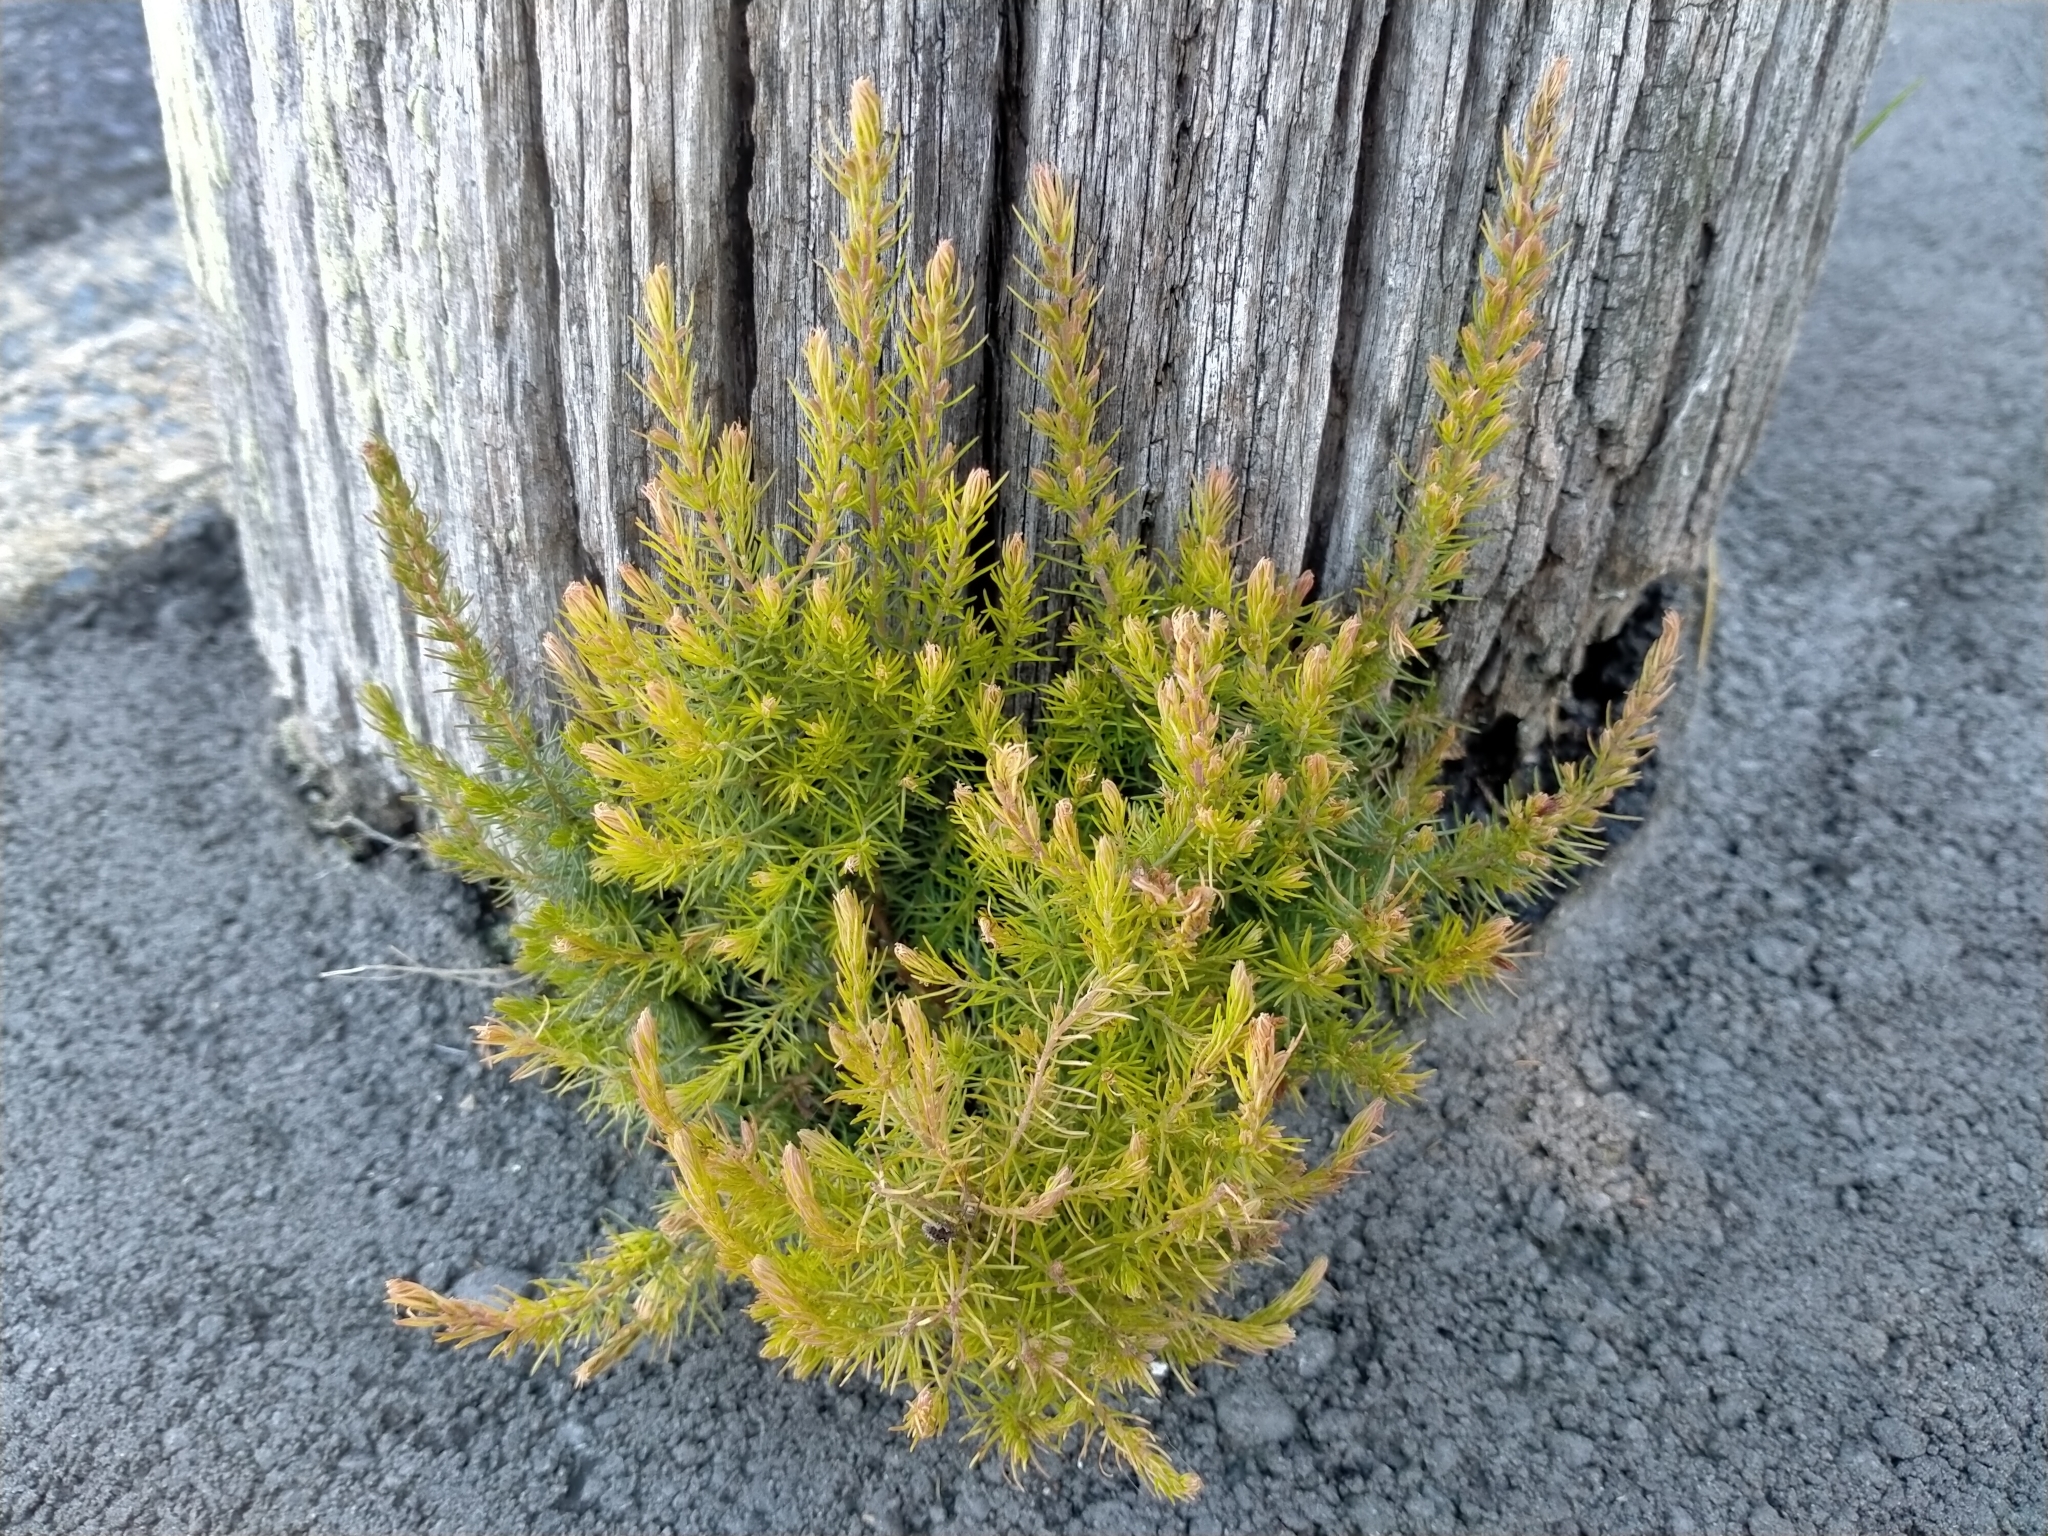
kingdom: Plantae
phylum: Tracheophyta
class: Magnoliopsida
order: Ericales
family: Ericaceae
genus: Erica
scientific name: Erica lusitanica
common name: Spanish heath
